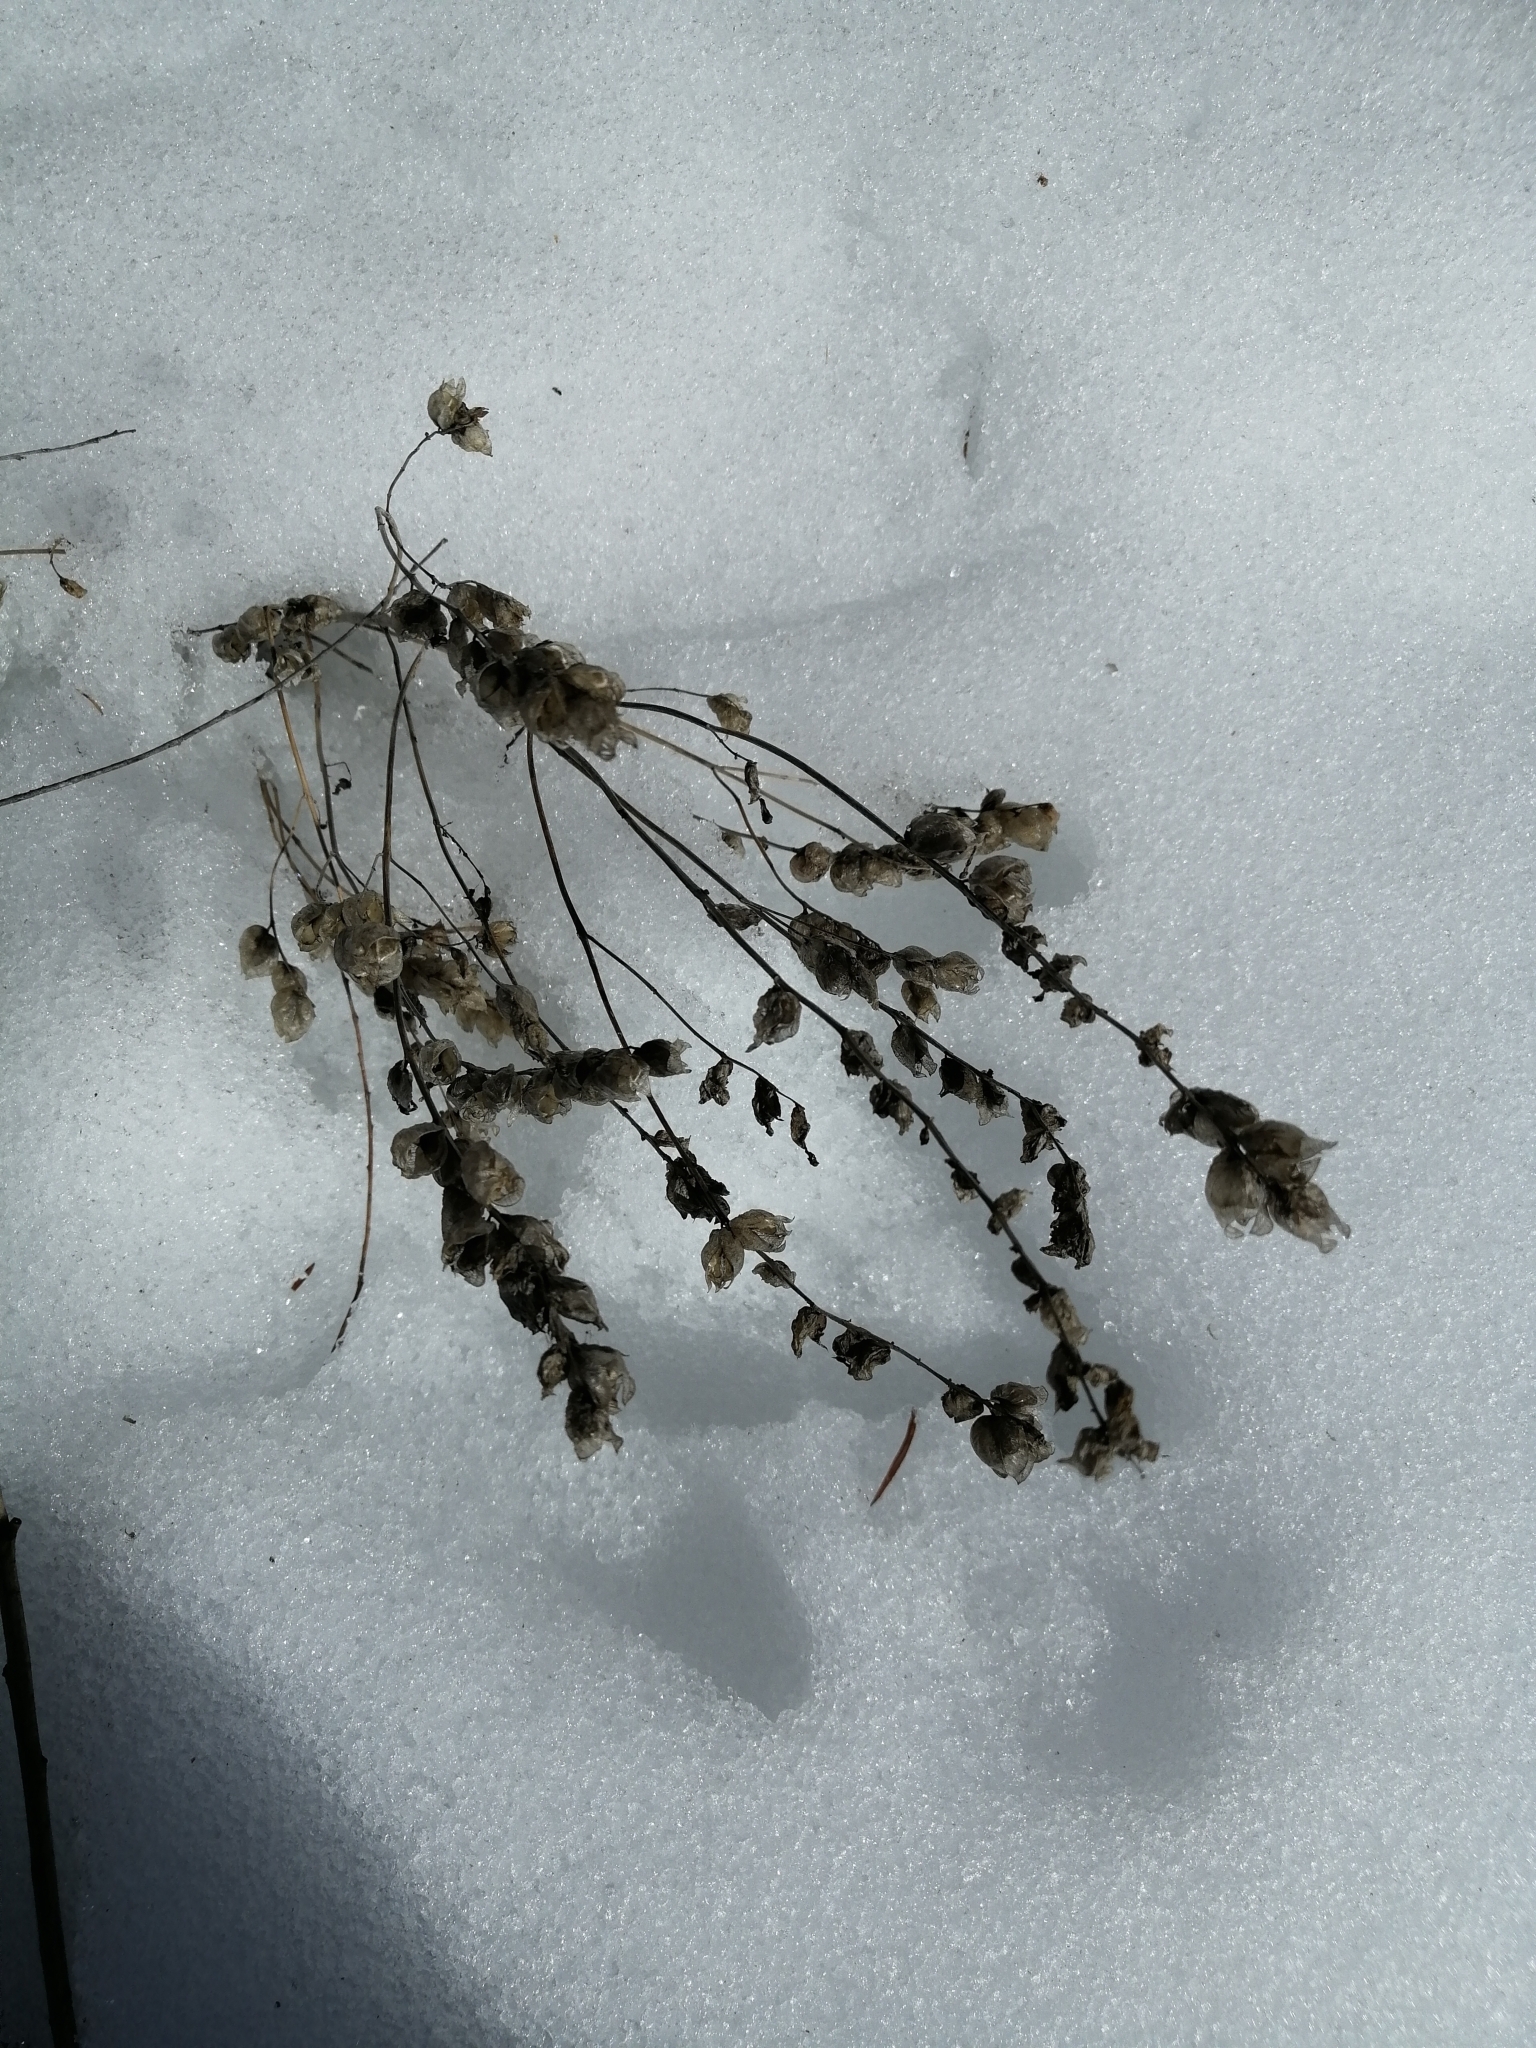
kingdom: Plantae
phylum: Tracheophyta
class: Magnoliopsida
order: Lamiales
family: Orobanchaceae
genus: Rhinanthus
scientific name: Rhinanthus serotinus
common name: Late-flowering yellow rattle
